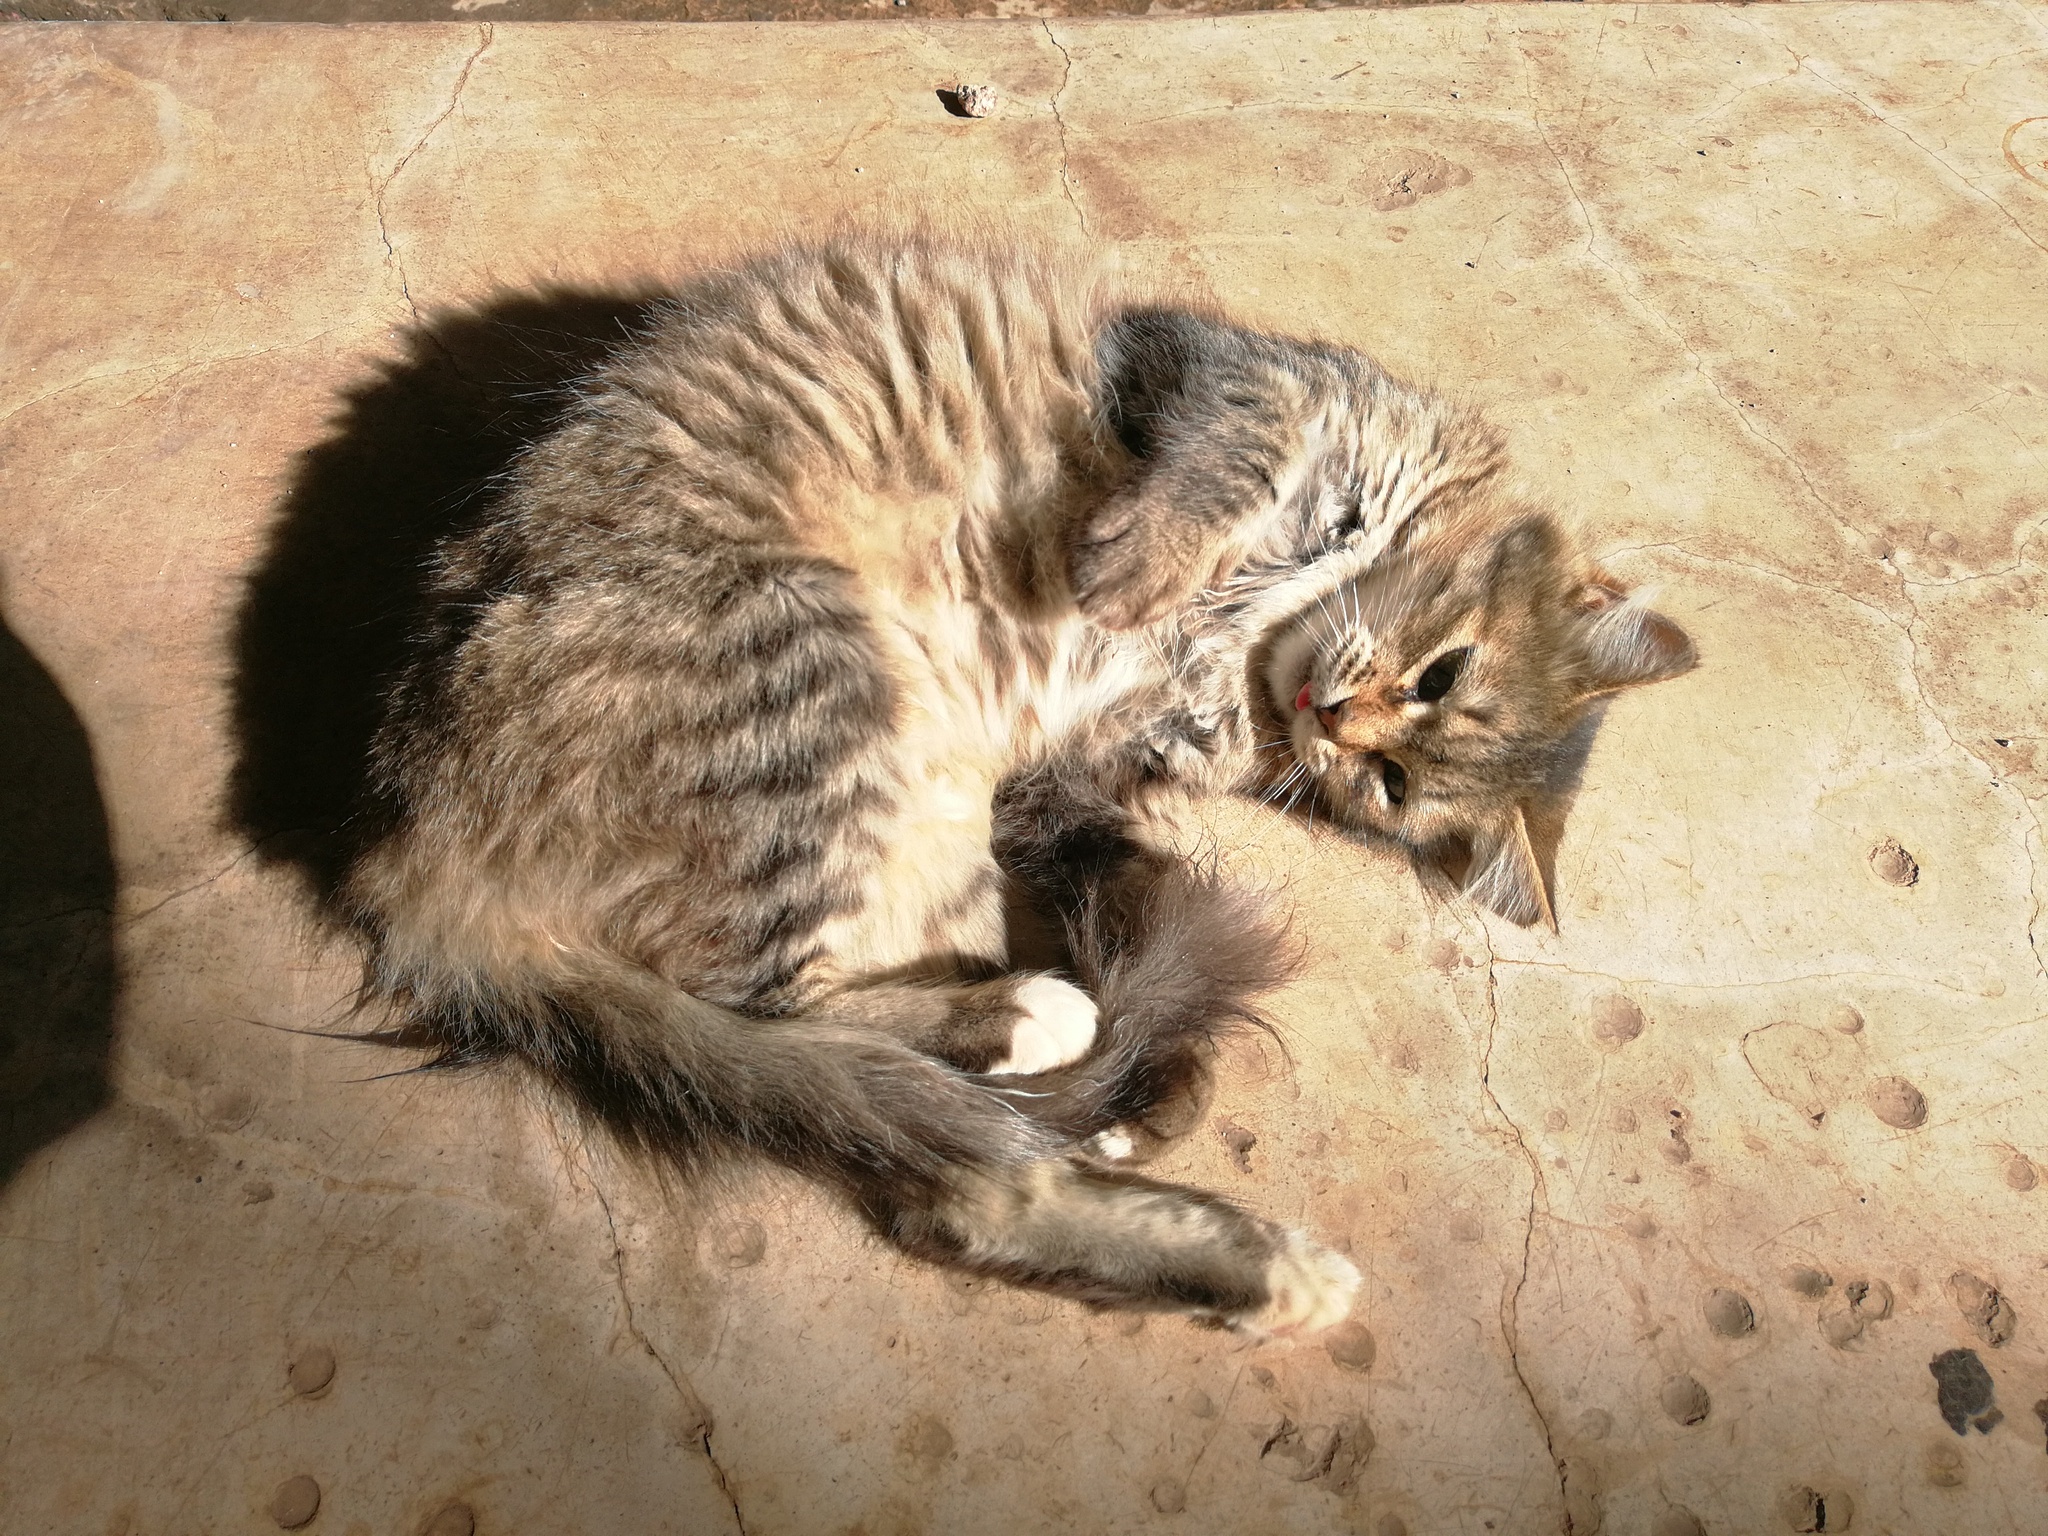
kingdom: Animalia
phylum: Chordata
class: Mammalia
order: Carnivora
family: Felidae
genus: Felis
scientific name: Felis catus
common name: Domestic cat
